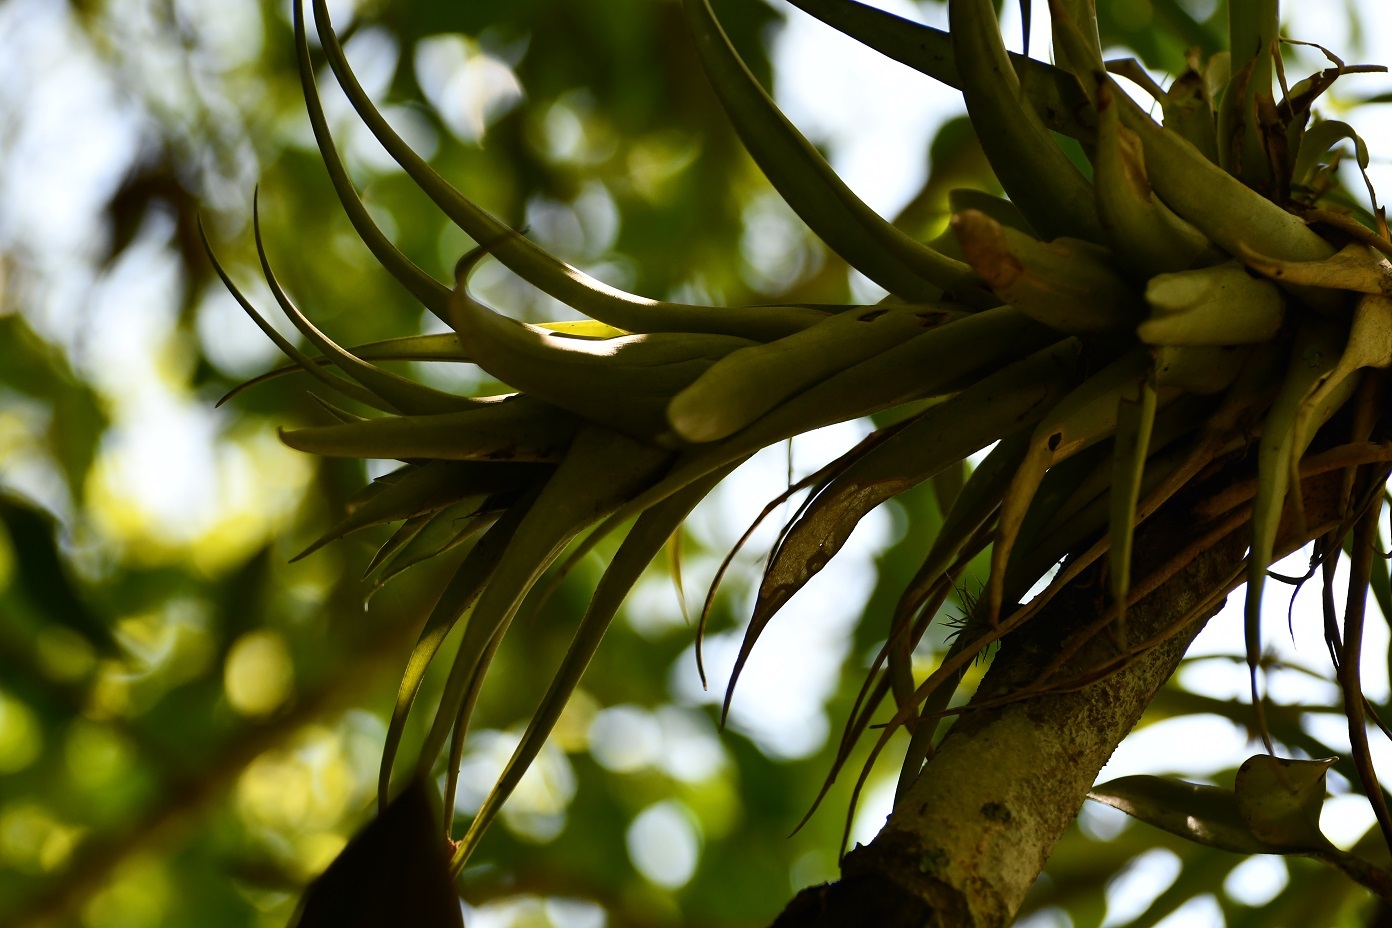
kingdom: Plantae
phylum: Tracheophyta
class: Liliopsida
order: Poales
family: Bromeliaceae
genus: Tillandsia
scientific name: Tillandsia capitata
